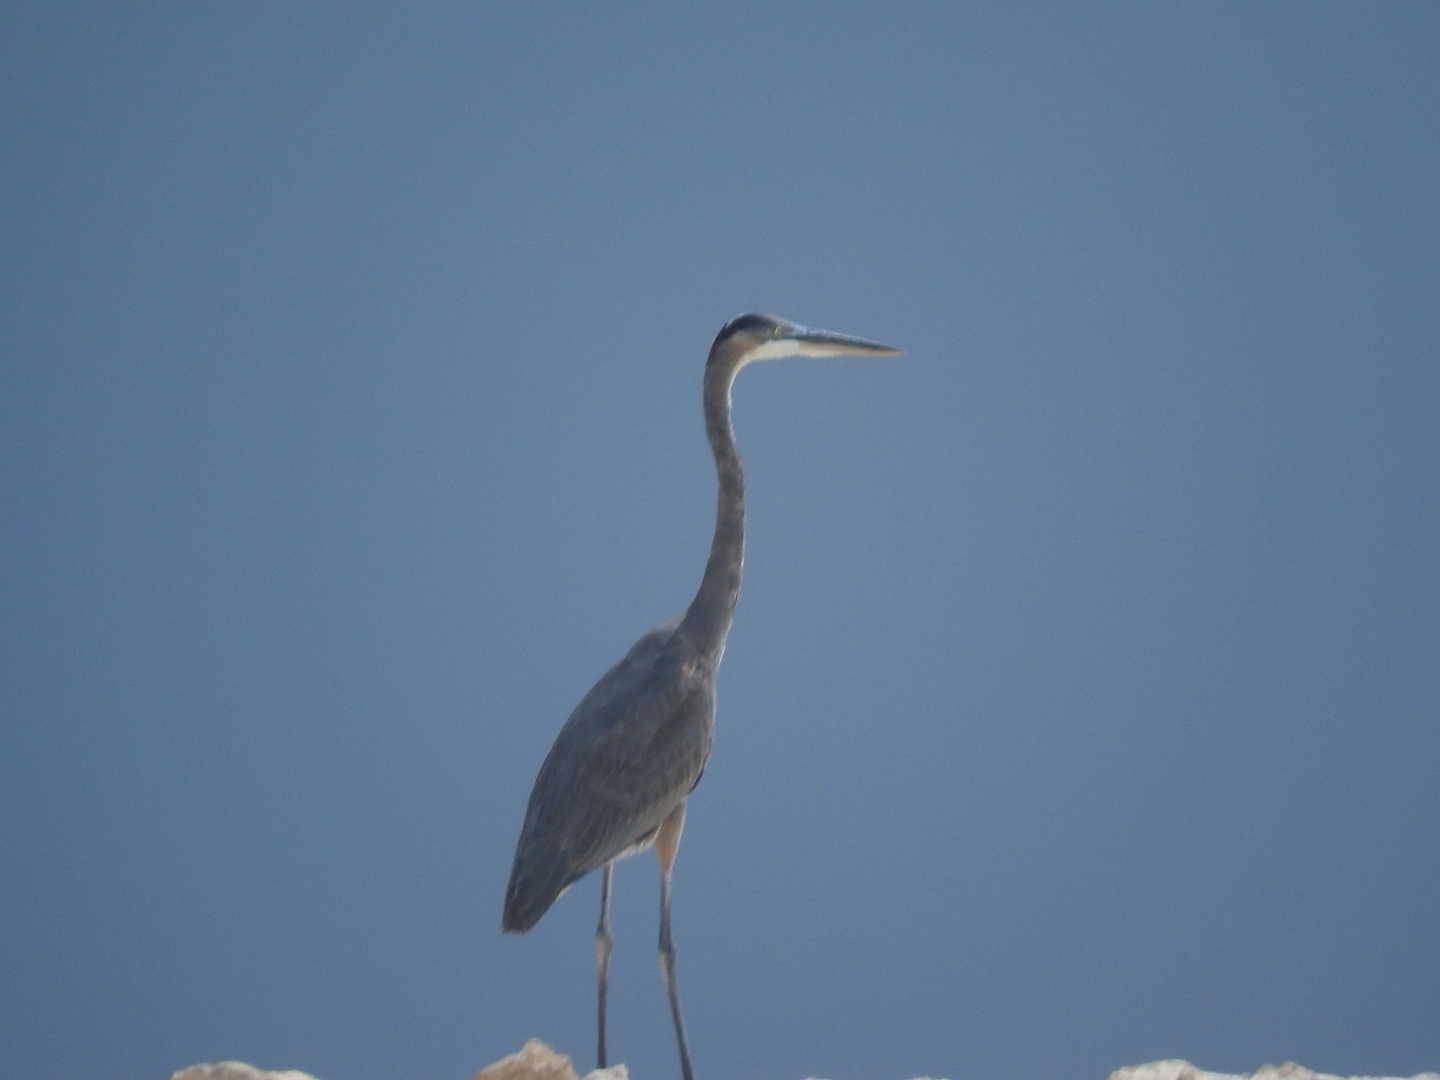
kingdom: Animalia
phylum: Chordata
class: Aves
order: Pelecaniformes
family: Ardeidae
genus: Ardea
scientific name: Ardea herodias
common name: Great blue heron
